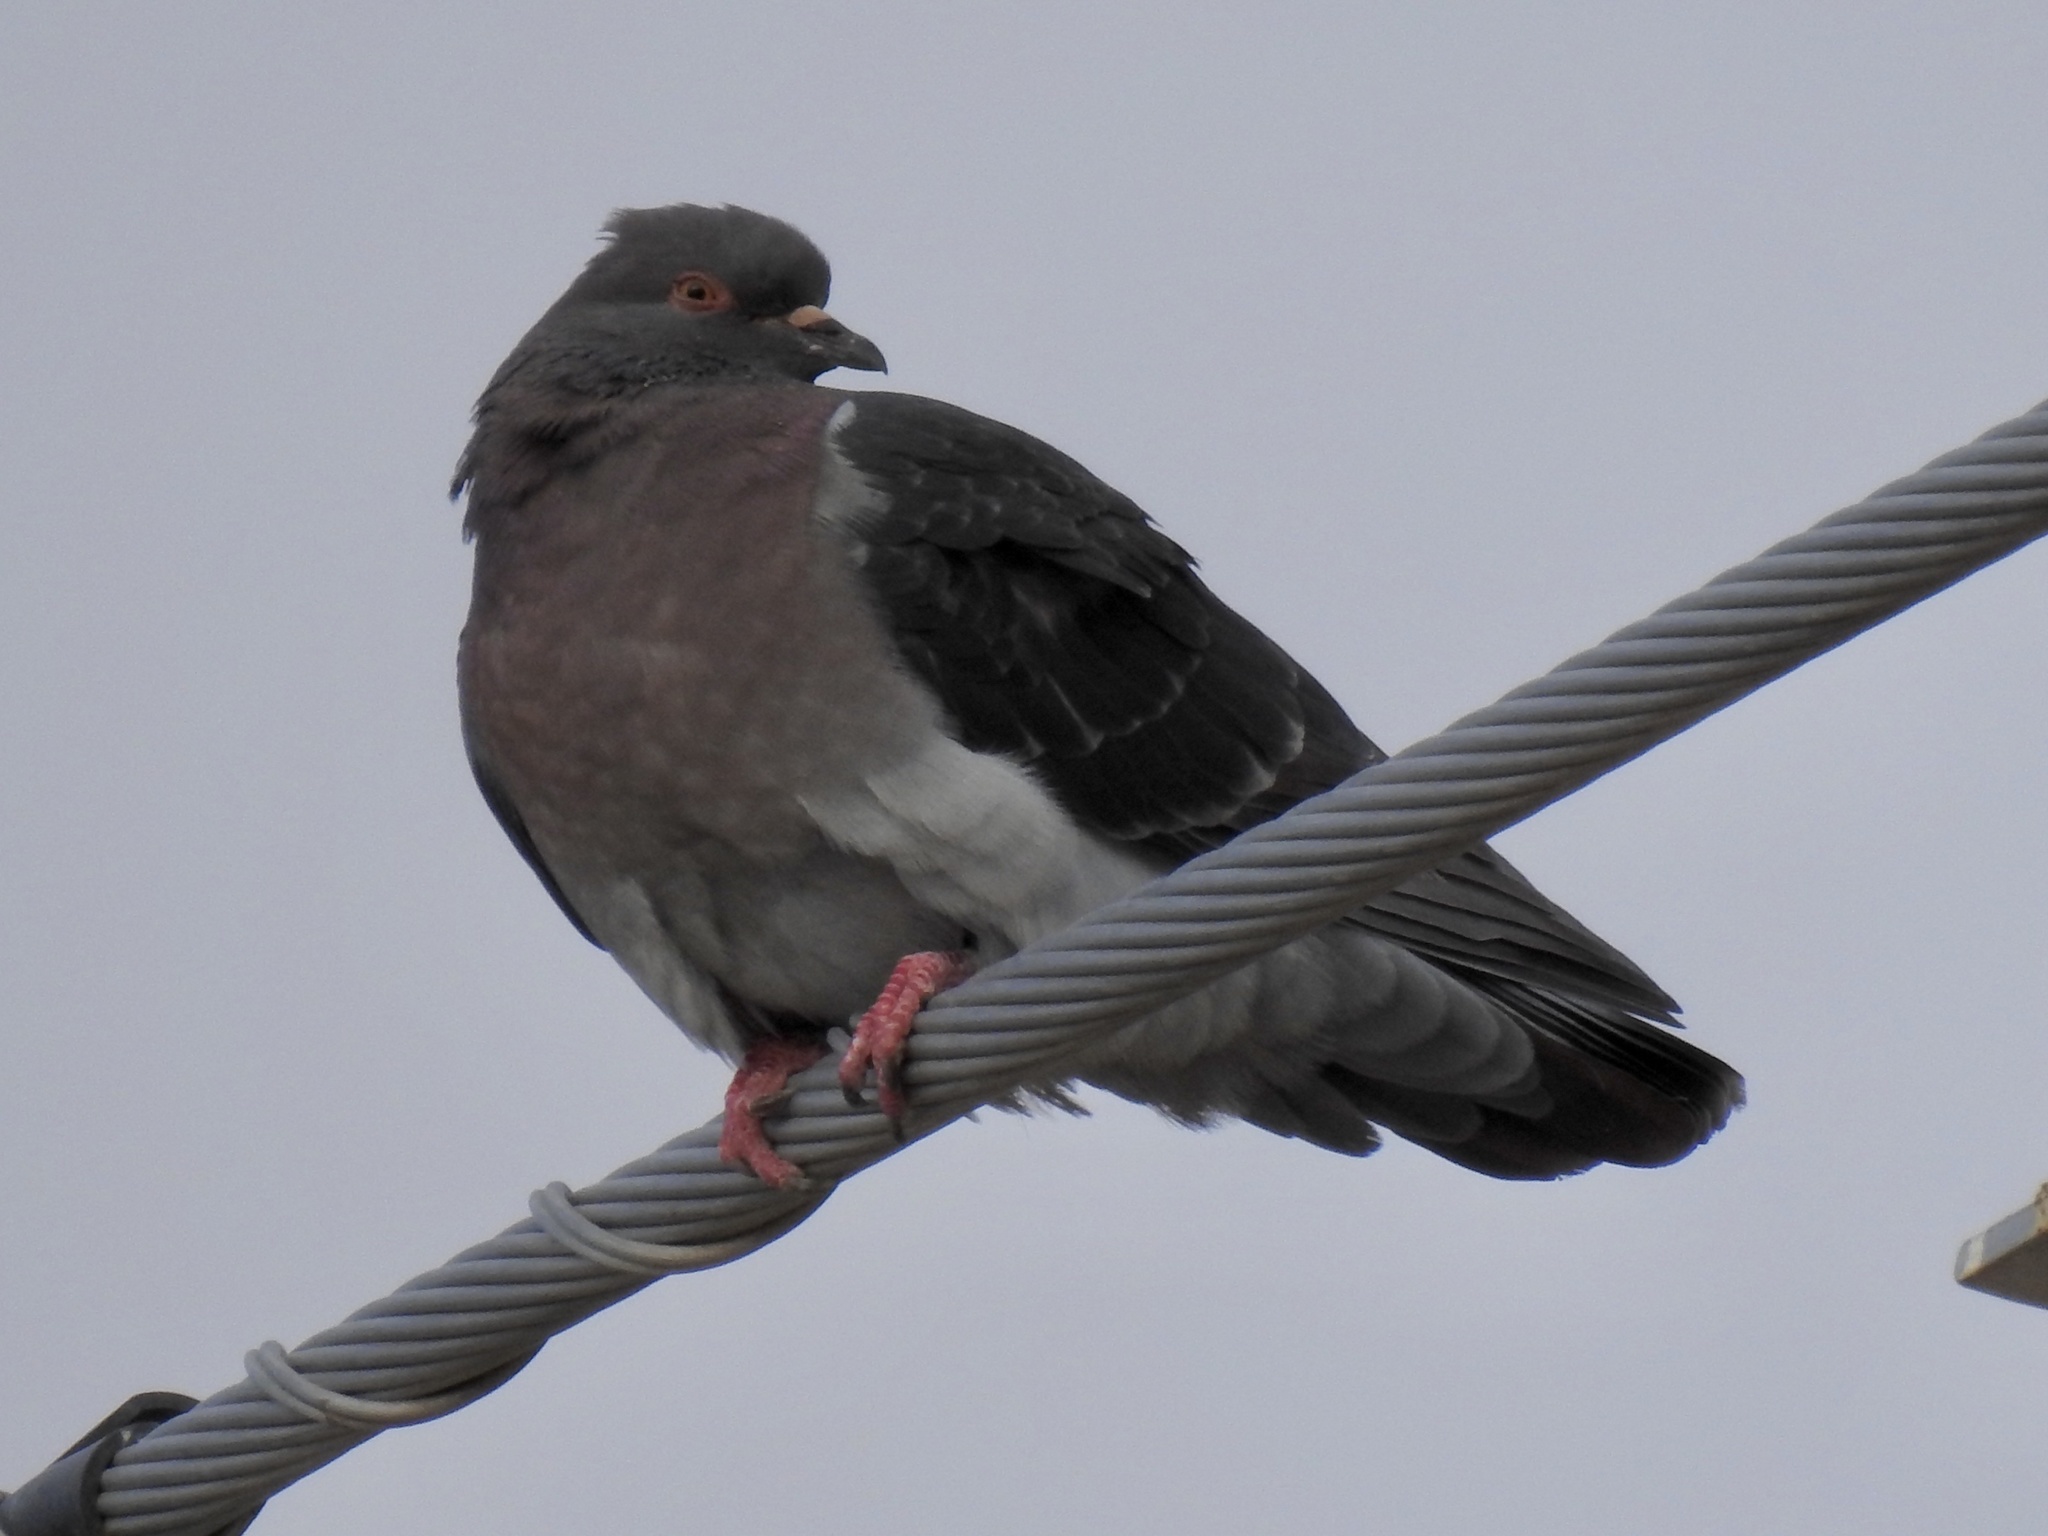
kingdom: Animalia
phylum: Chordata
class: Aves
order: Columbiformes
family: Columbidae
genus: Columba
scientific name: Columba livia
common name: Rock pigeon
